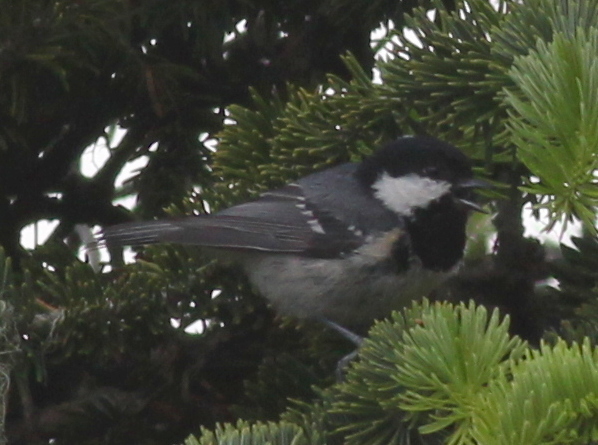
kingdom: Animalia
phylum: Chordata
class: Aves
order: Passeriformes
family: Paridae
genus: Periparus
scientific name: Periparus ater
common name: Coal tit
